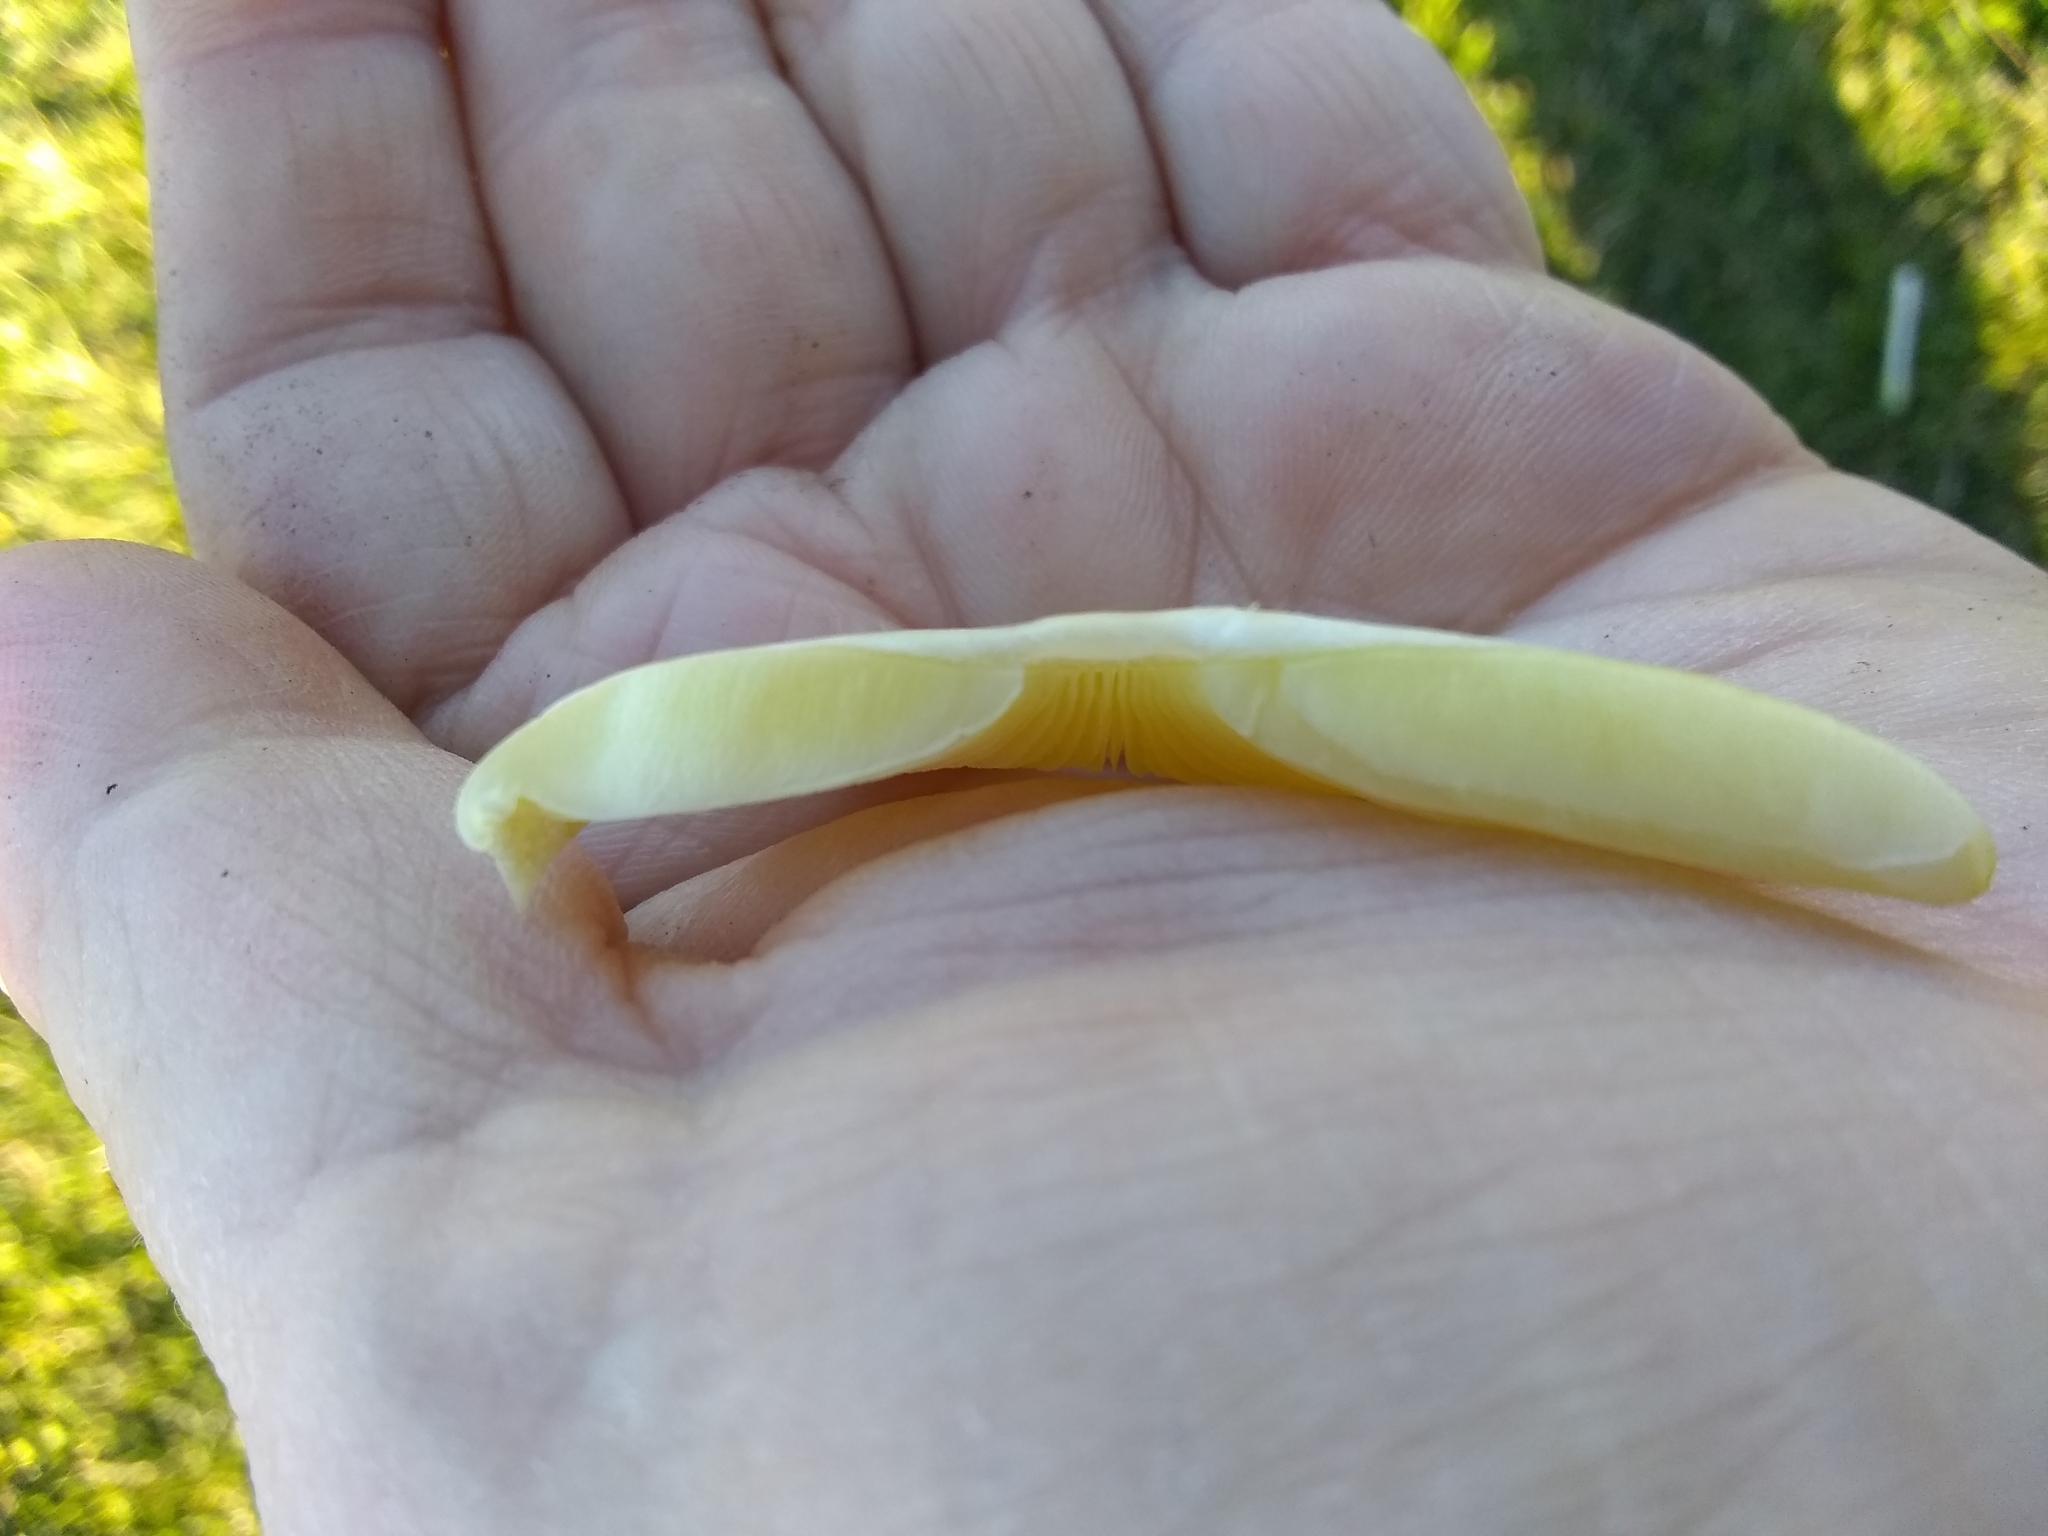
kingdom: Fungi
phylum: Basidiomycota
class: Agaricomycetes
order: Agaricales
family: Bolbitiaceae
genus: Bolbitius
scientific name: Bolbitius titubans
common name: Yellow fieldcap
